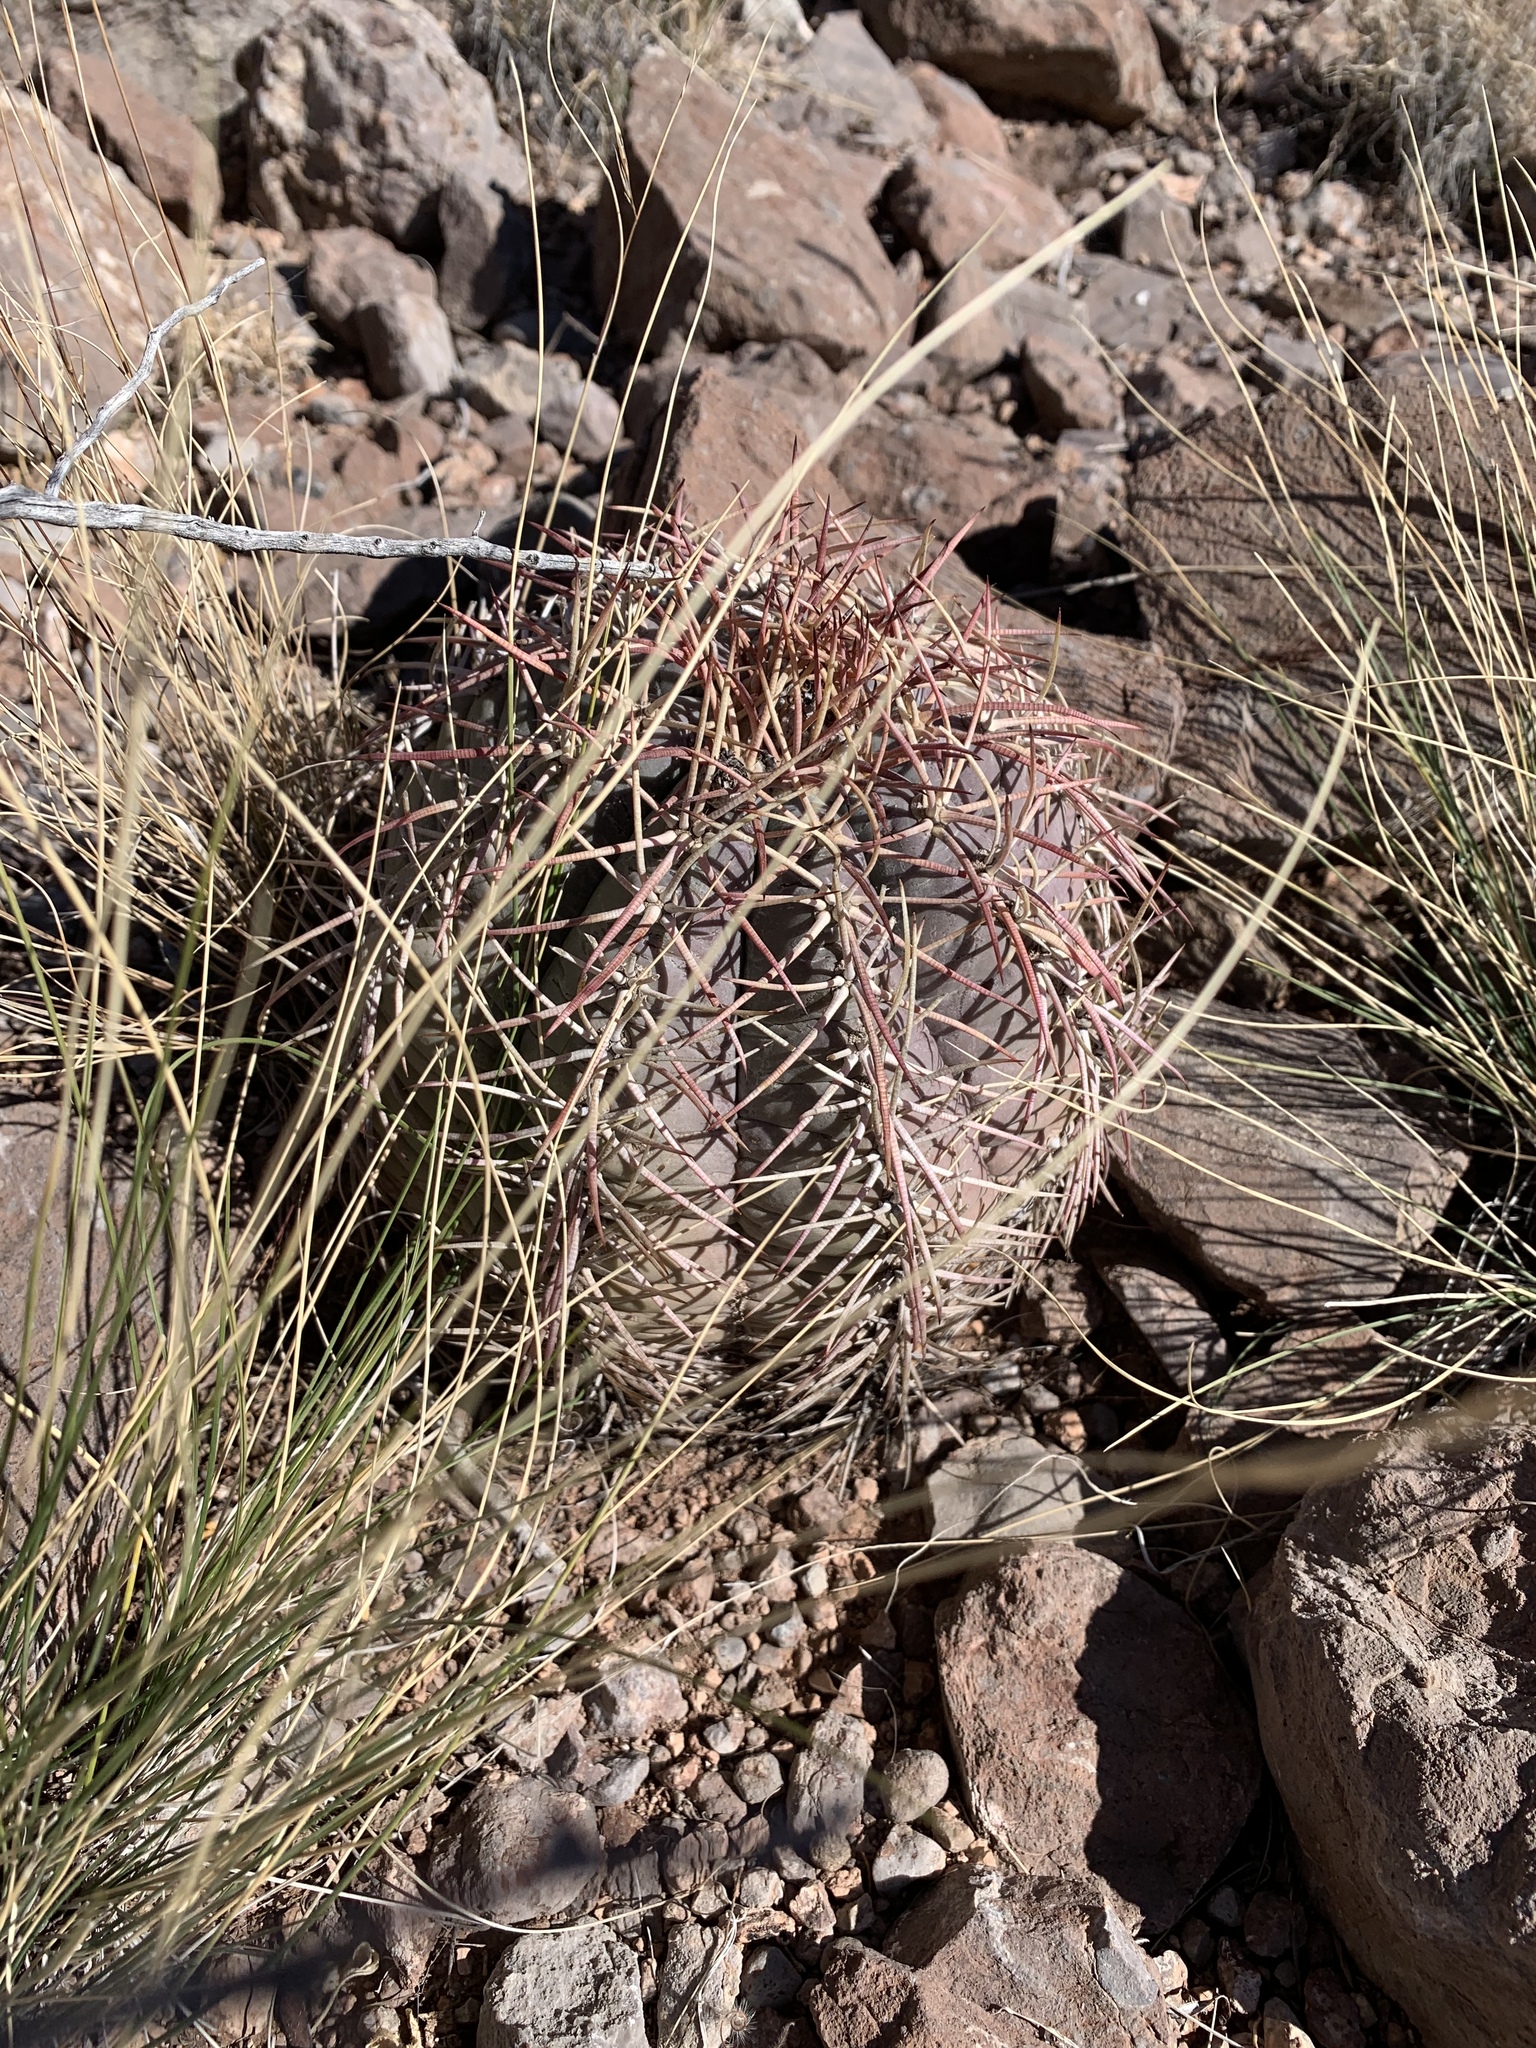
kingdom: Plantae
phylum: Tracheophyta
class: Magnoliopsida
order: Caryophyllales
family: Cactaceae
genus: Echinocactus
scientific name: Echinocactus horizonthalonius
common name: Devilshead
